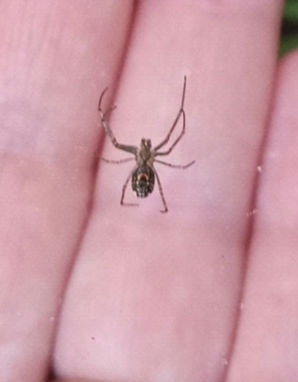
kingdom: Animalia
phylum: Arthropoda
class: Arachnida
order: Araneae
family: Tetragnathidae
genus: Leucauge
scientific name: Leucauge venusta
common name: Longjawed orb weavers
